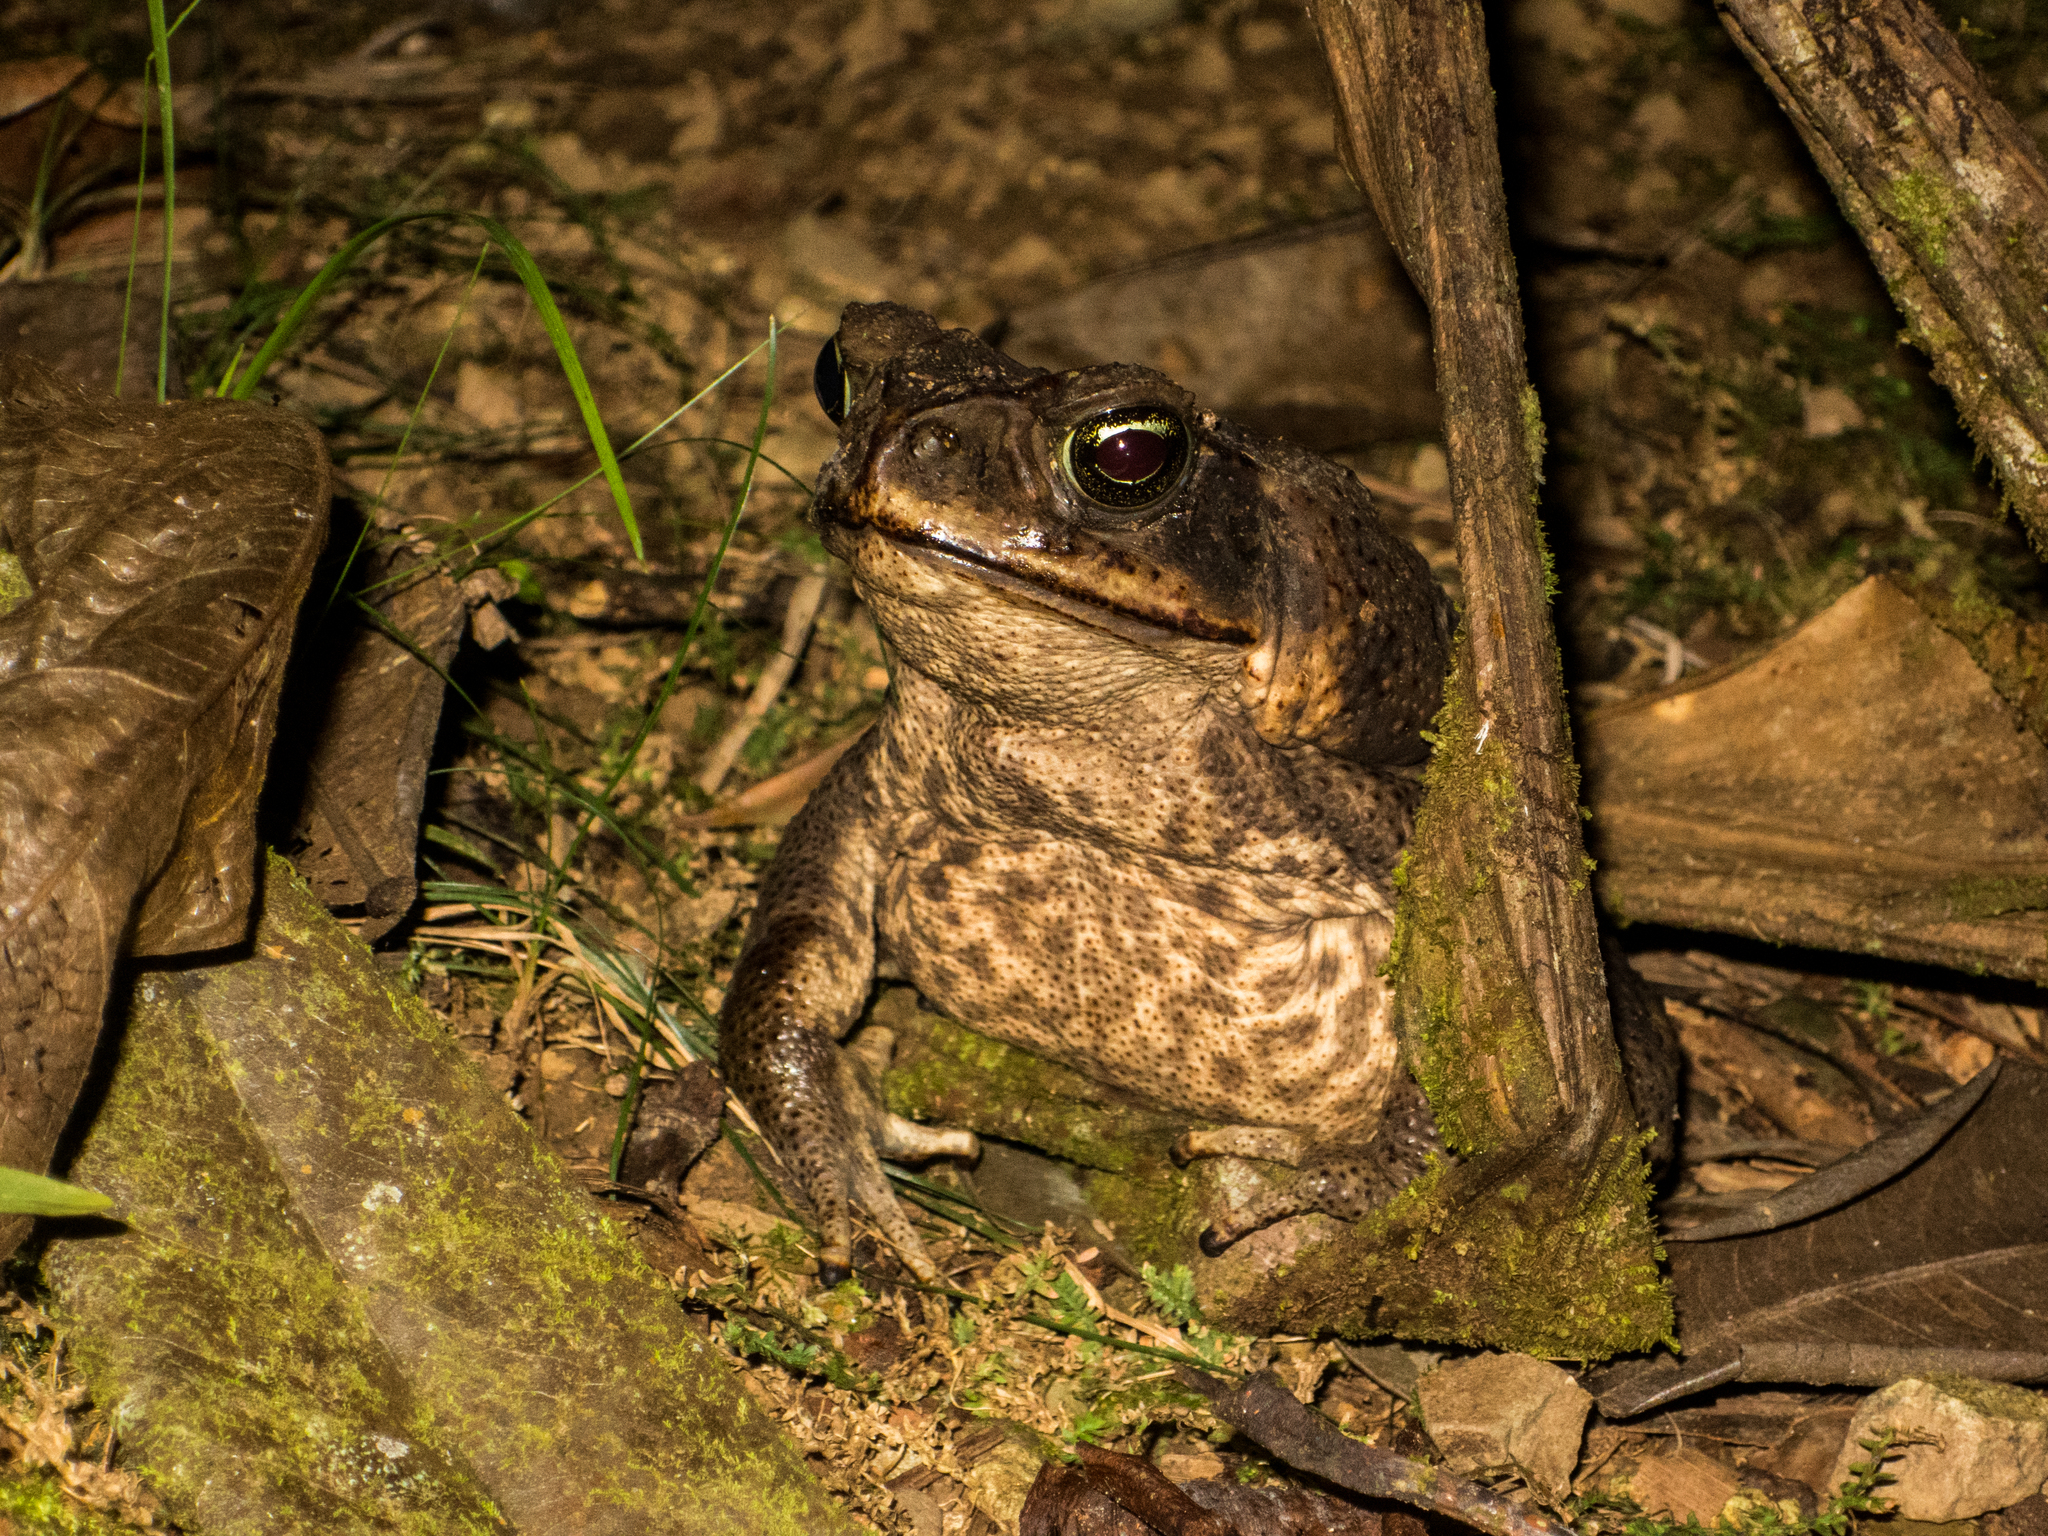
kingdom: Animalia
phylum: Chordata
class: Amphibia
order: Anura
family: Bufonidae
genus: Rhinella
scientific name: Rhinella horribilis
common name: Mesoamerican cane toad
